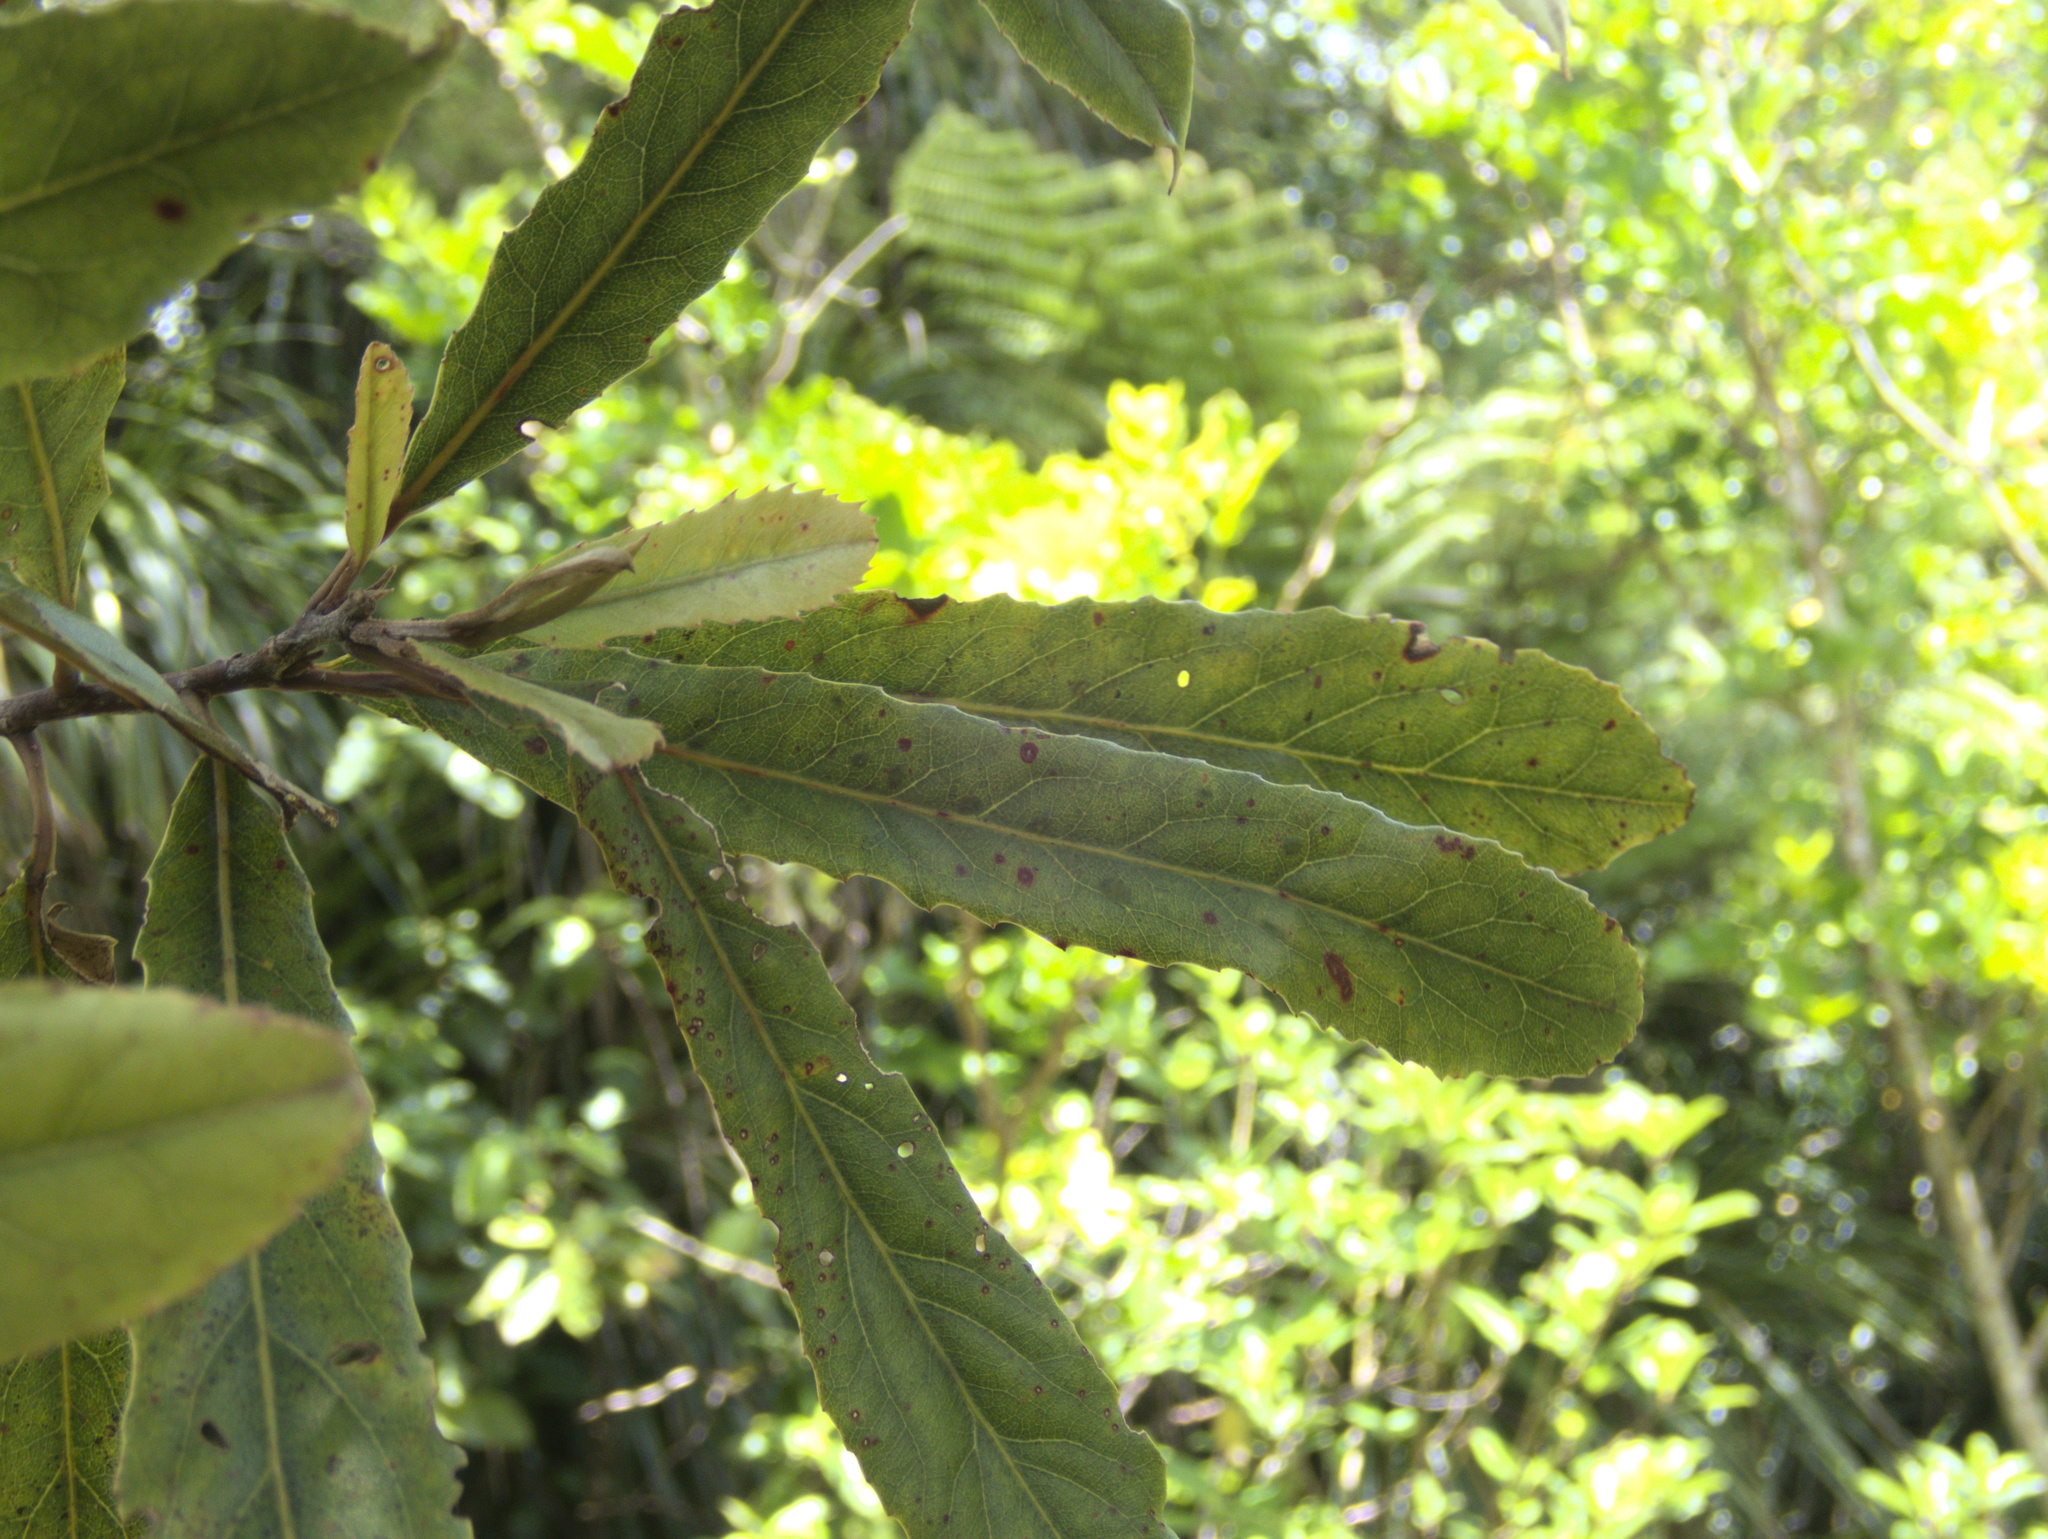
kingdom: Plantae
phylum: Tracheophyta
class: Magnoliopsida
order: Oxalidales
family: Elaeocarpaceae
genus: Elaeocarpus
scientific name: Elaeocarpus dentatus
